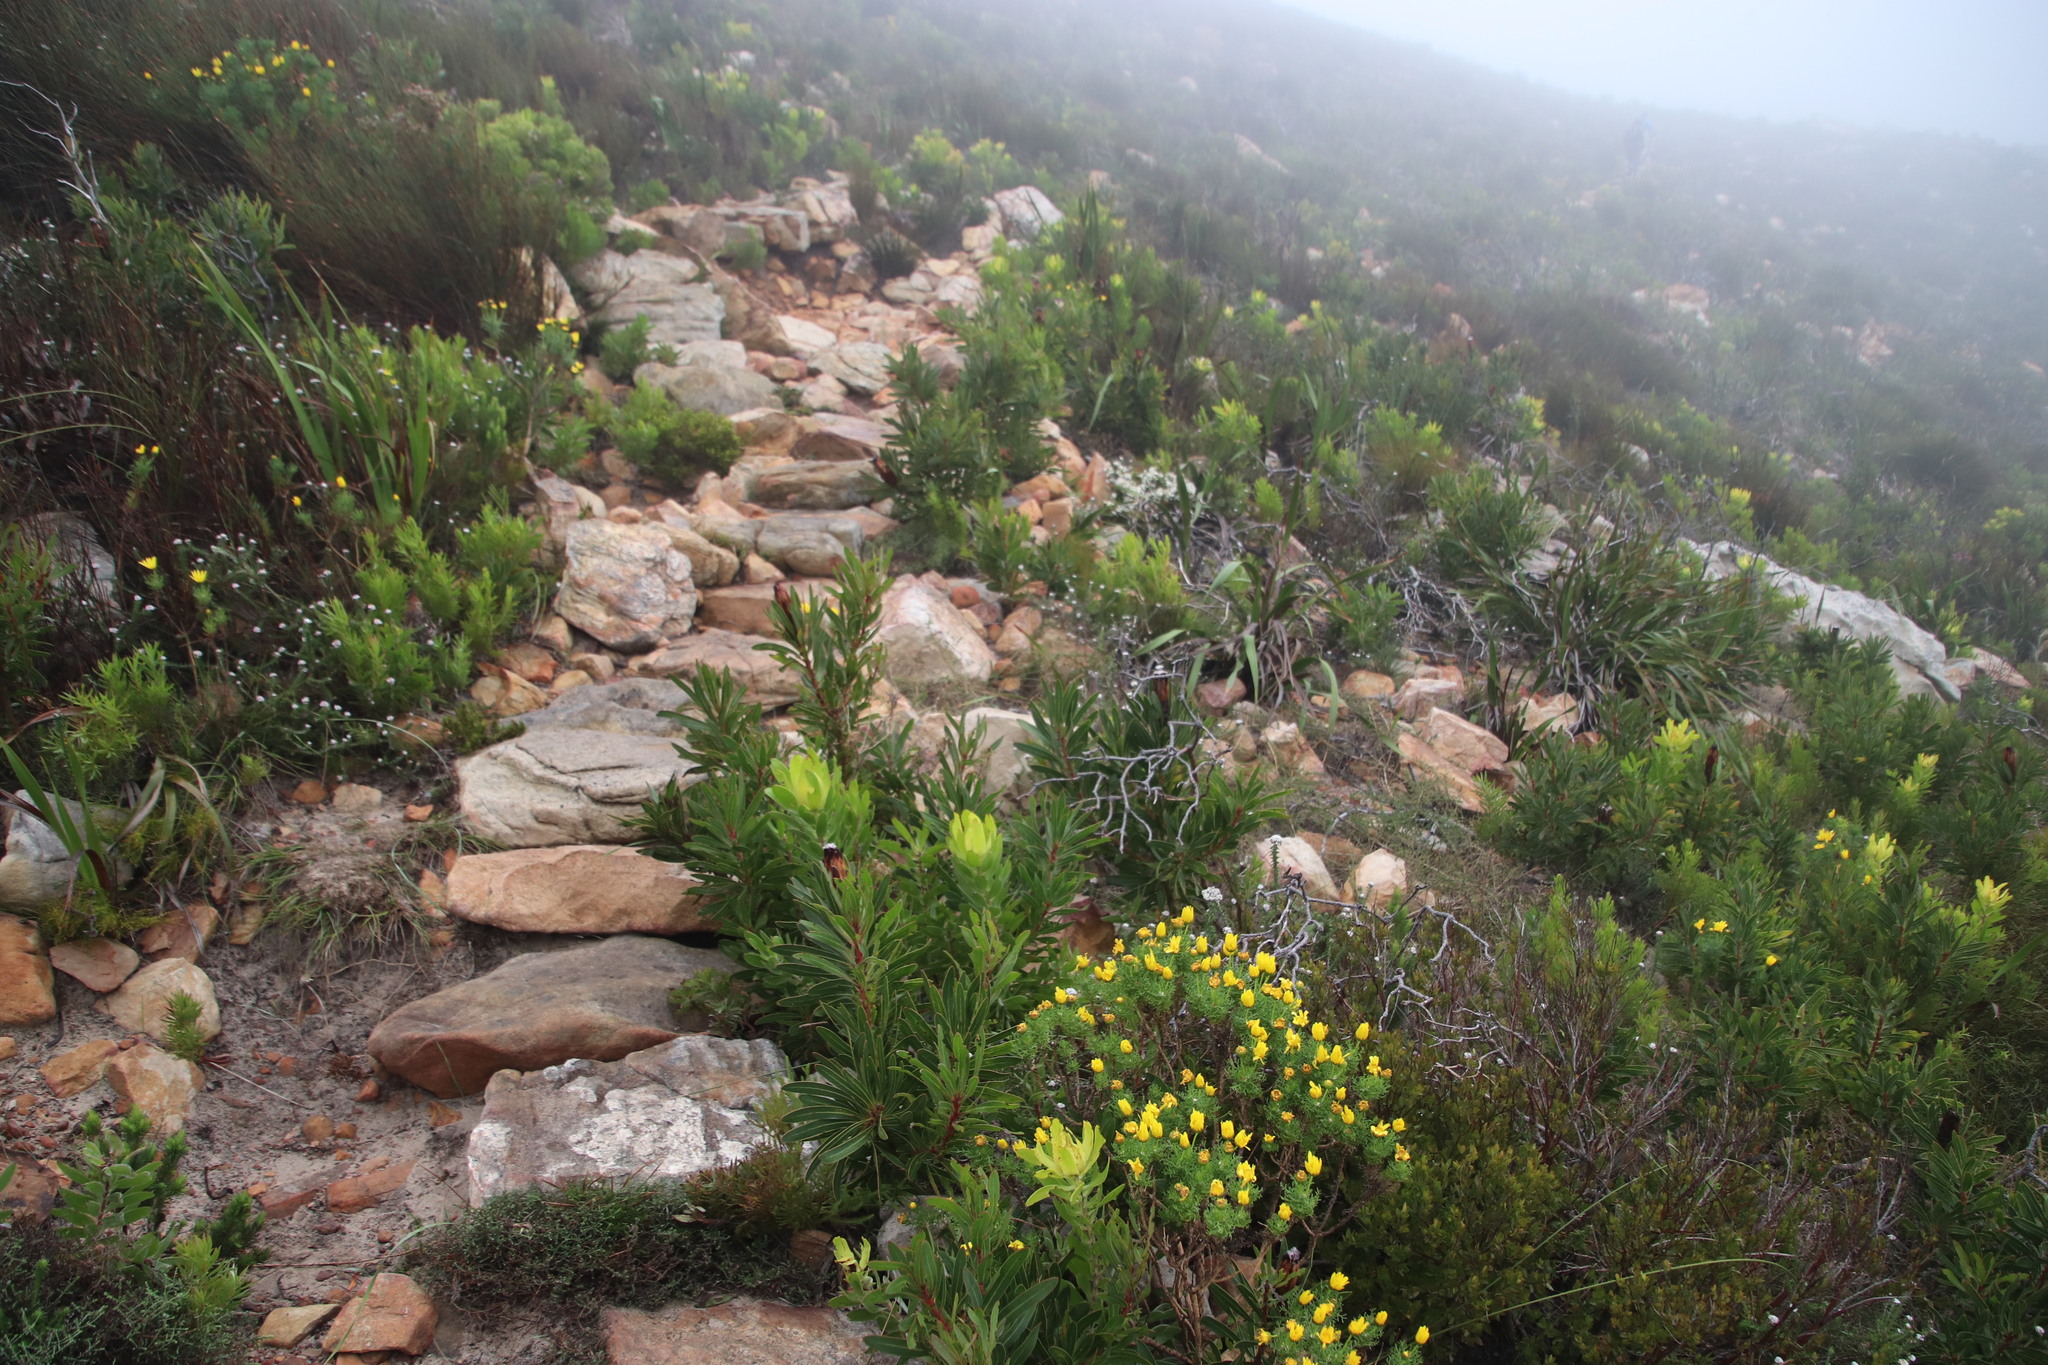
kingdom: Plantae
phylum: Tracheophyta
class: Magnoliopsida
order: Proteales
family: Proteaceae
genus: Leucadendron
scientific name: Leucadendron laureolum
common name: Golden sunshinebush
